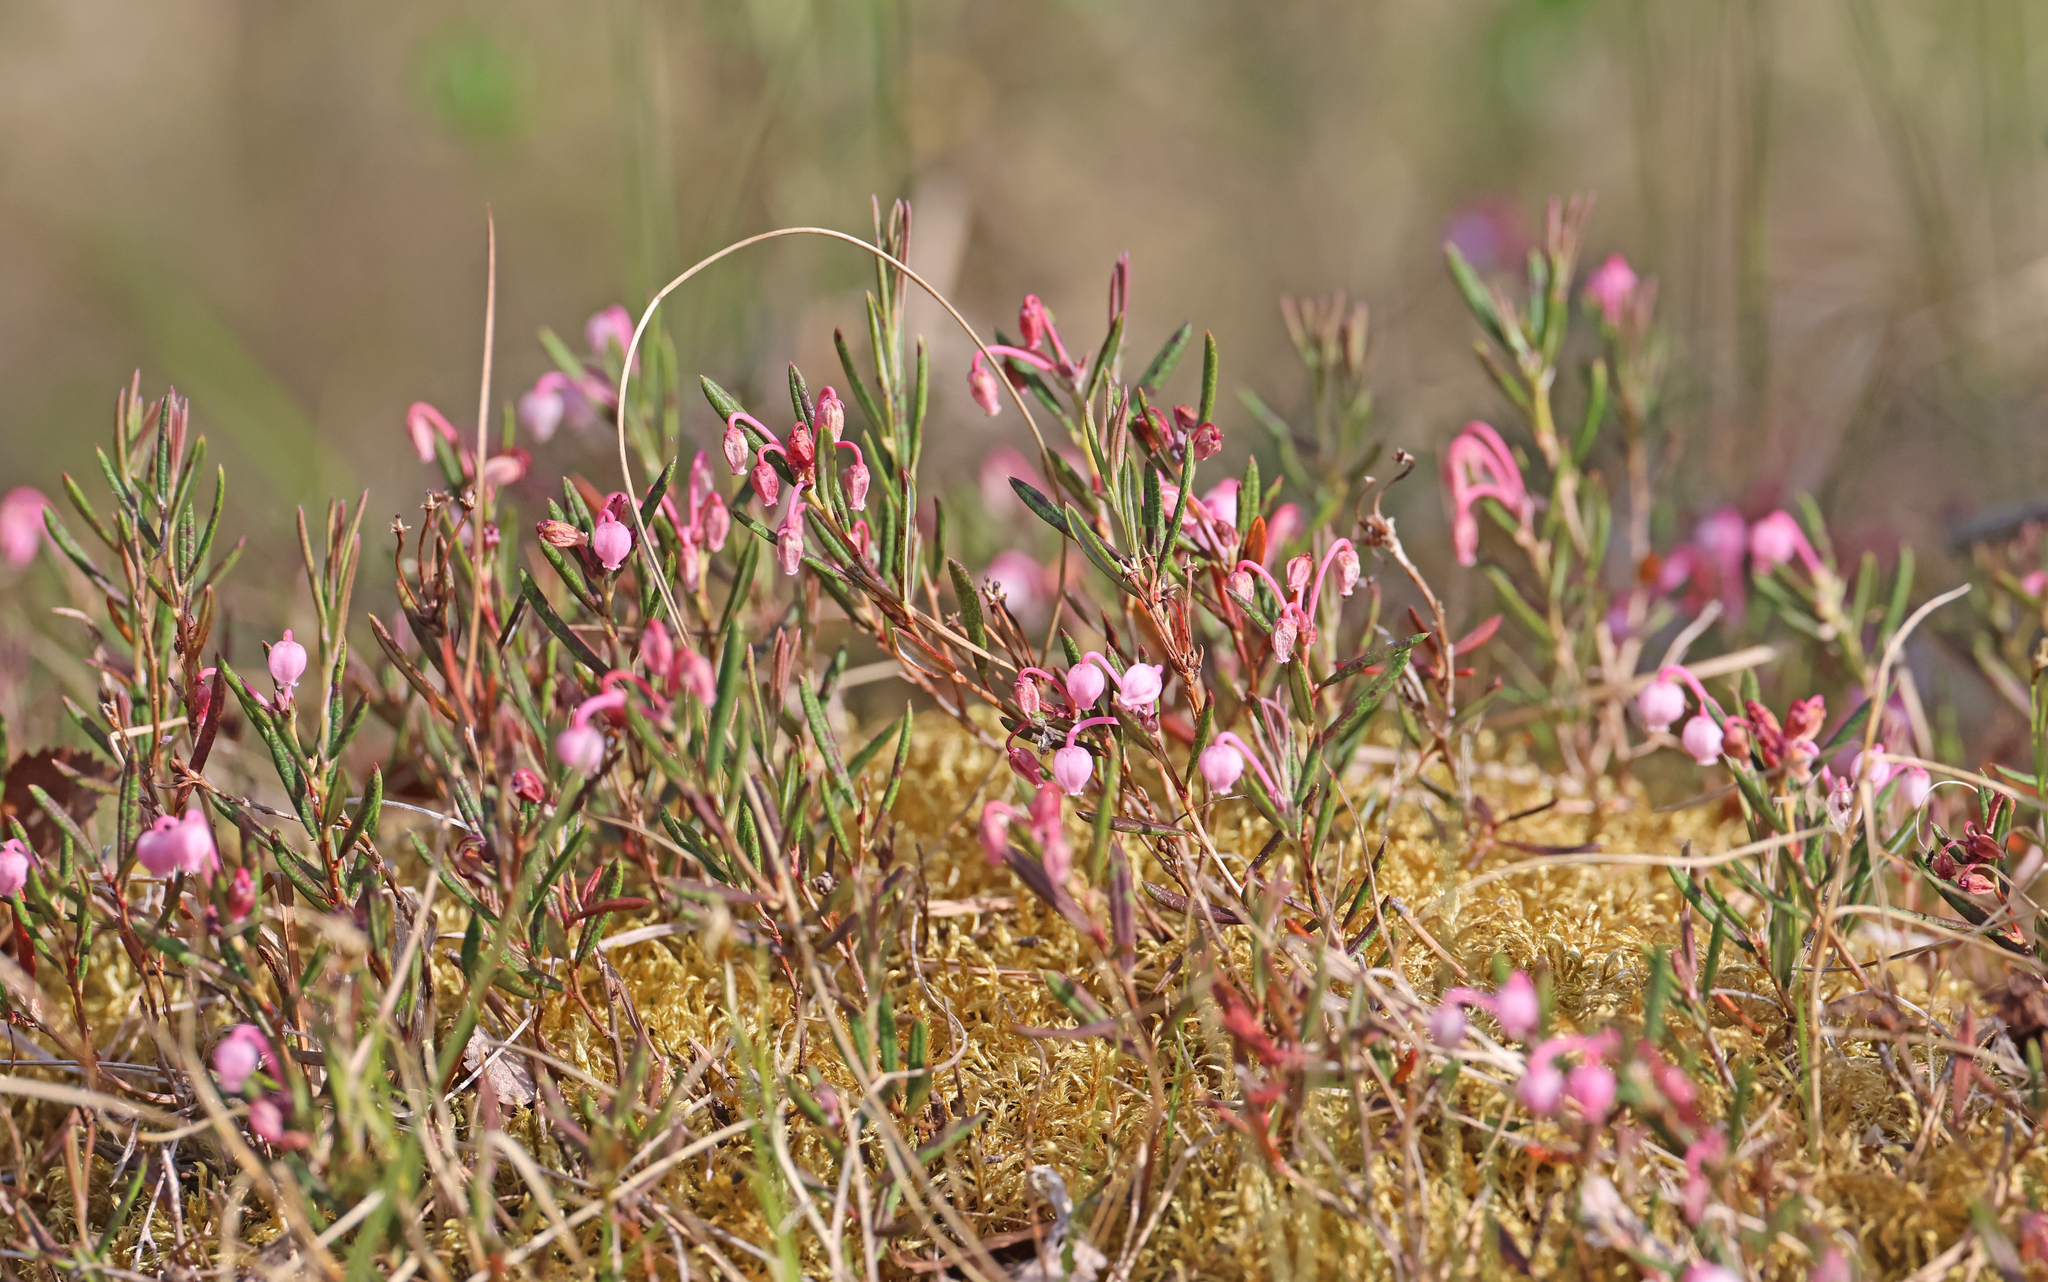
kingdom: Plantae
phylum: Tracheophyta
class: Magnoliopsida
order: Ericales
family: Ericaceae
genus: Andromeda
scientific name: Andromeda polifolia
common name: Bog-rosemary
